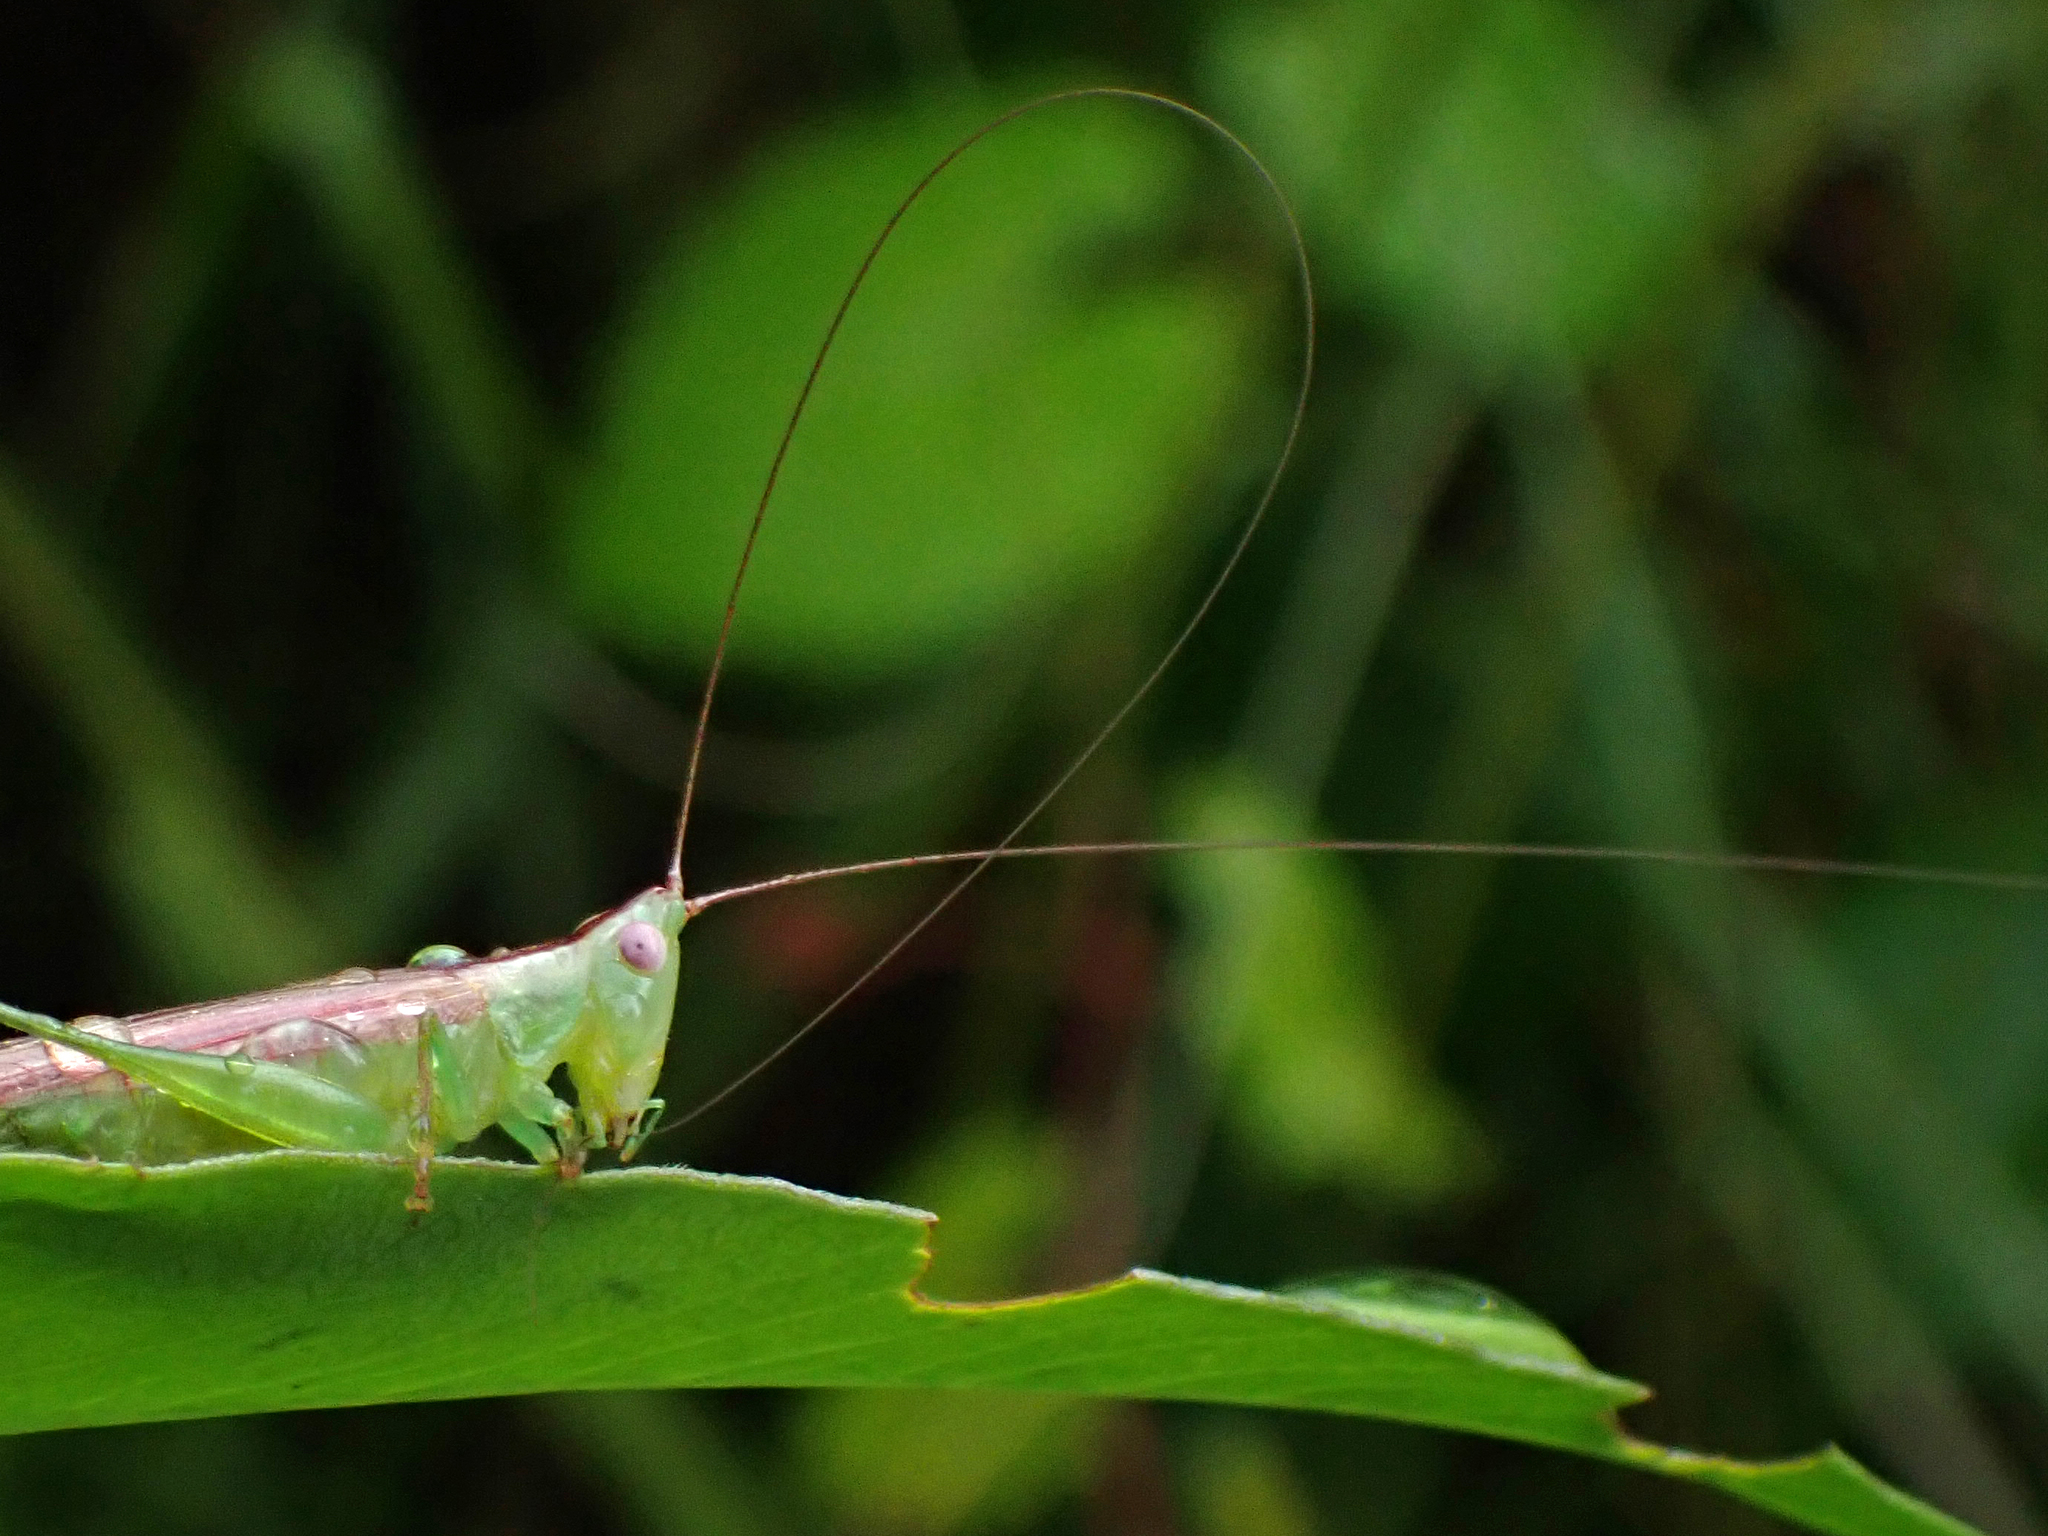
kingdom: Animalia
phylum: Arthropoda
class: Insecta
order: Orthoptera
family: Tettigoniidae
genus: Conocephalus
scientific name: Conocephalus gracillimus
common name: Graceful meadow katydid
